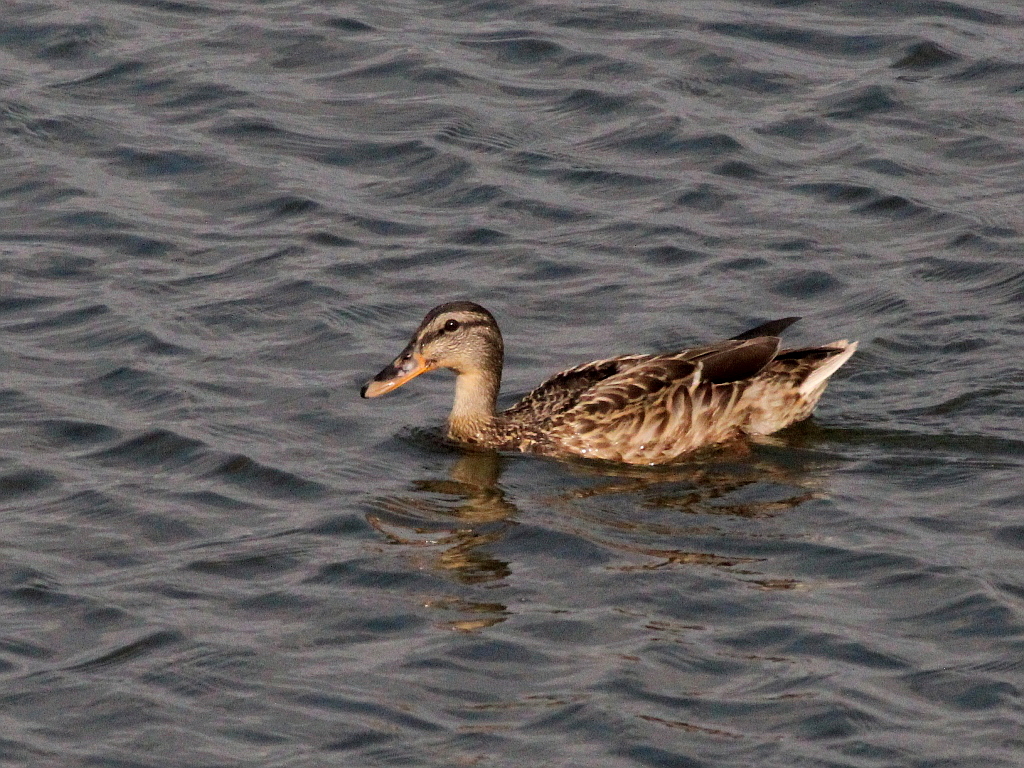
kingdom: Animalia
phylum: Chordata
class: Aves
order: Anseriformes
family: Anatidae
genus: Anas
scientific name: Anas platyrhynchos
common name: Mallard
